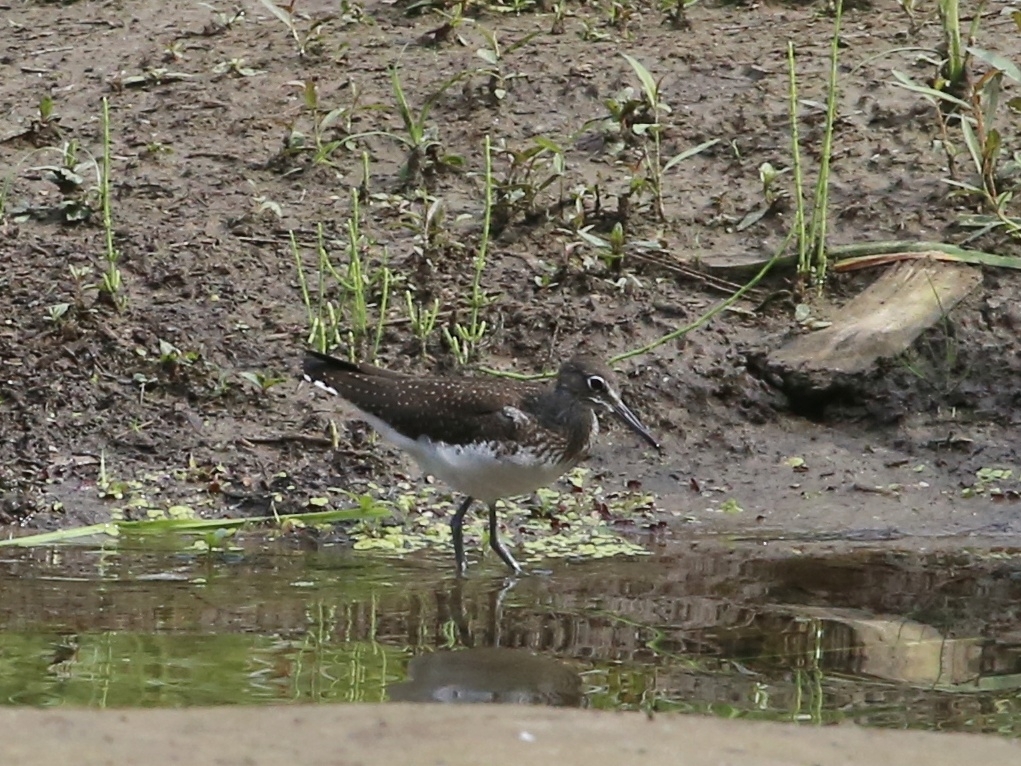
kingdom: Animalia
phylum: Chordata
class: Aves
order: Charadriiformes
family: Scolopacidae
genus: Tringa
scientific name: Tringa ochropus
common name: Green sandpiper
